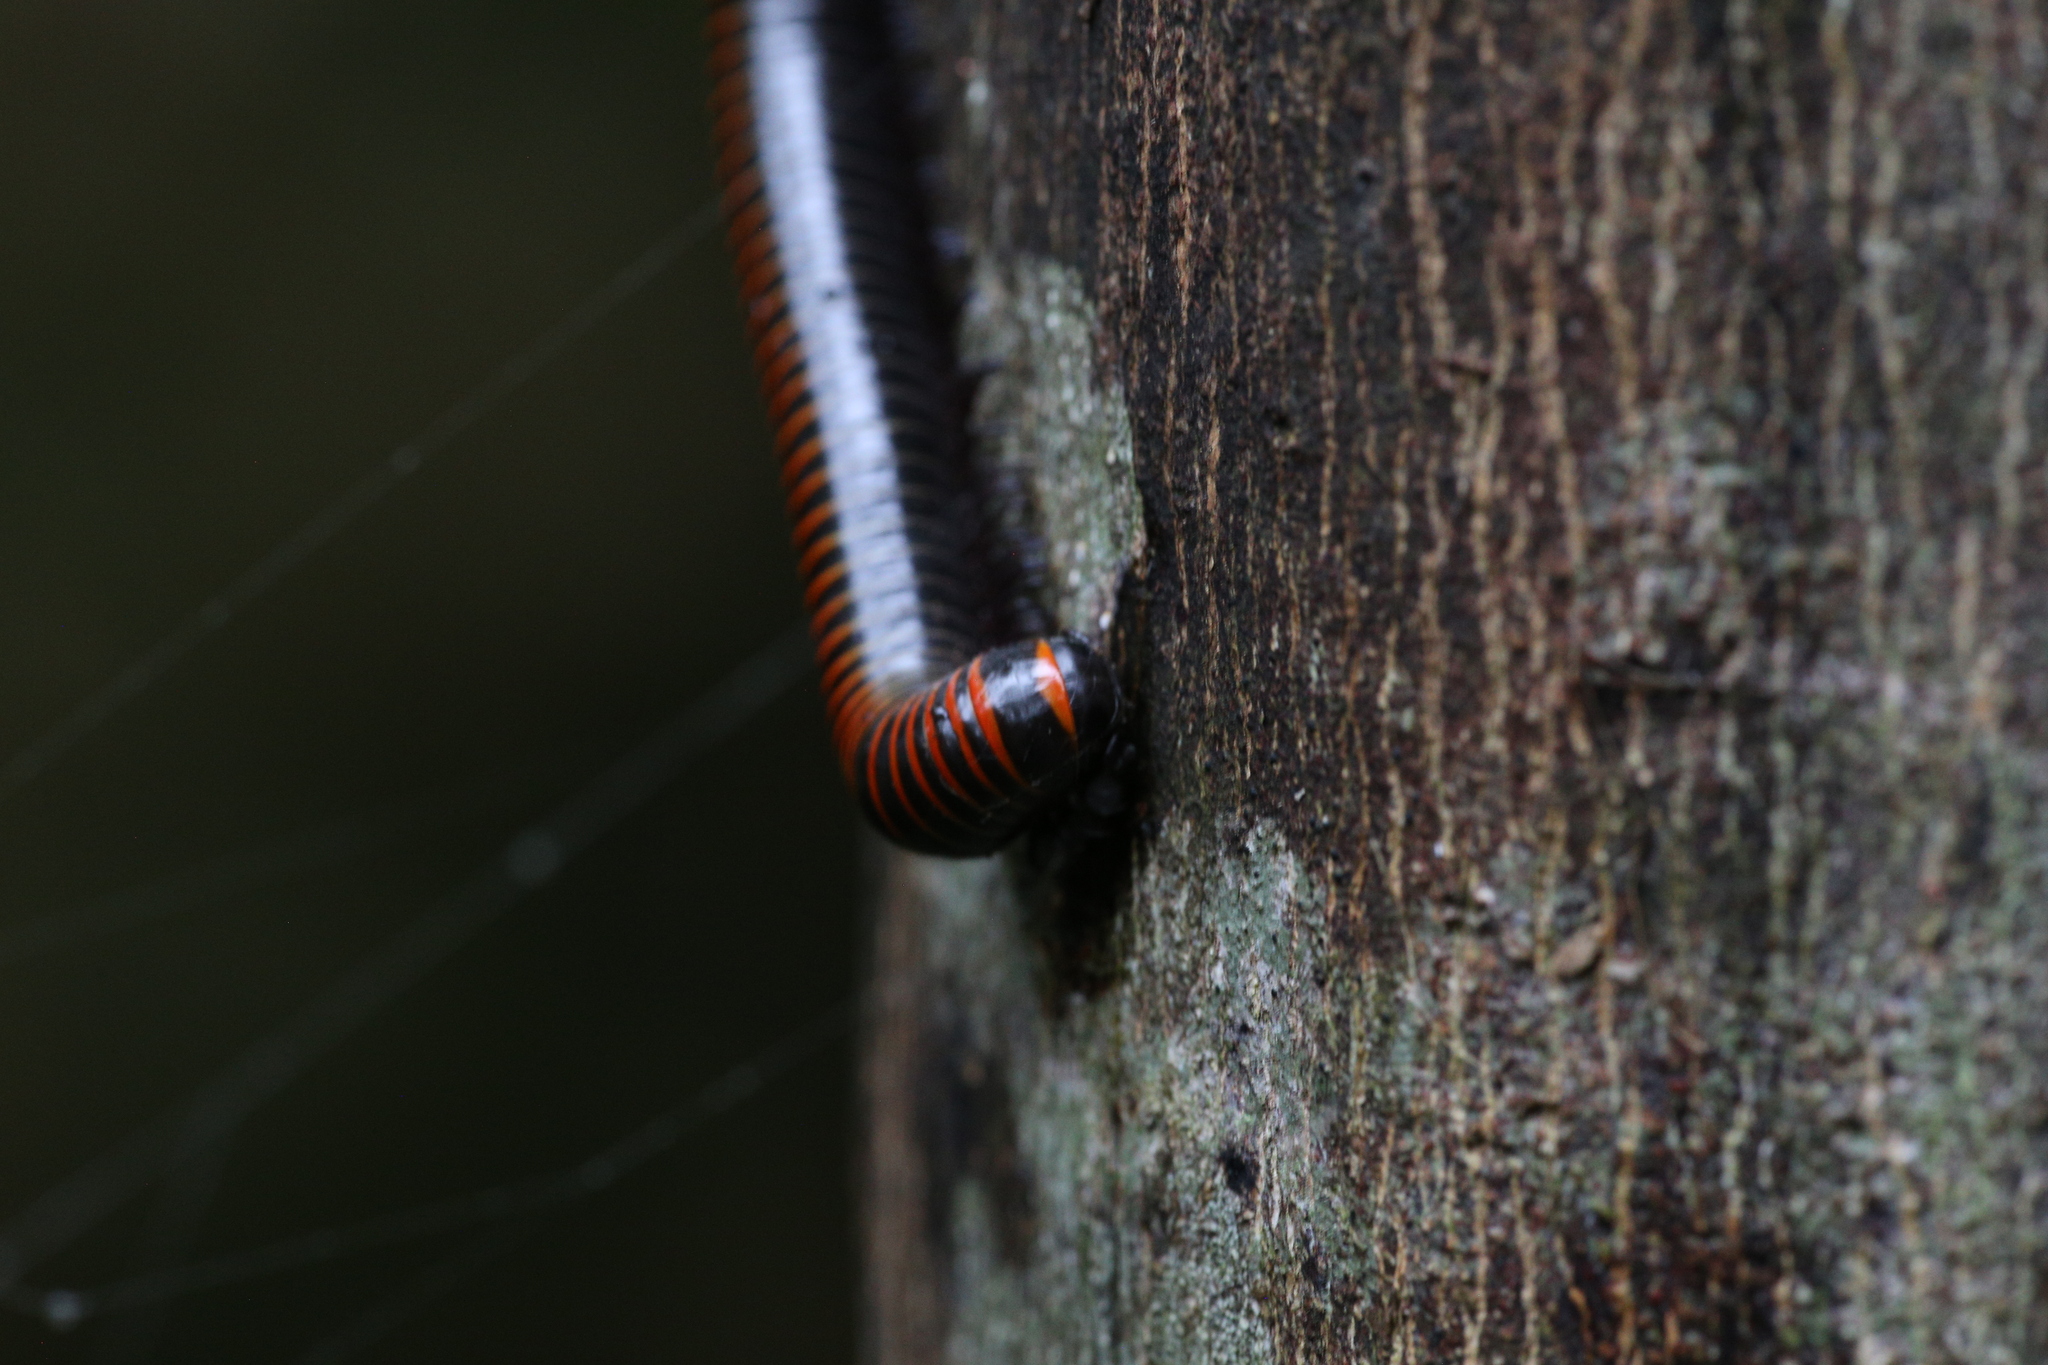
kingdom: Animalia
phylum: Arthropoda
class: Diplopoda
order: Spirobolida
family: Spirobolidae
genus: Spirobolus
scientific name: Spirobolus
